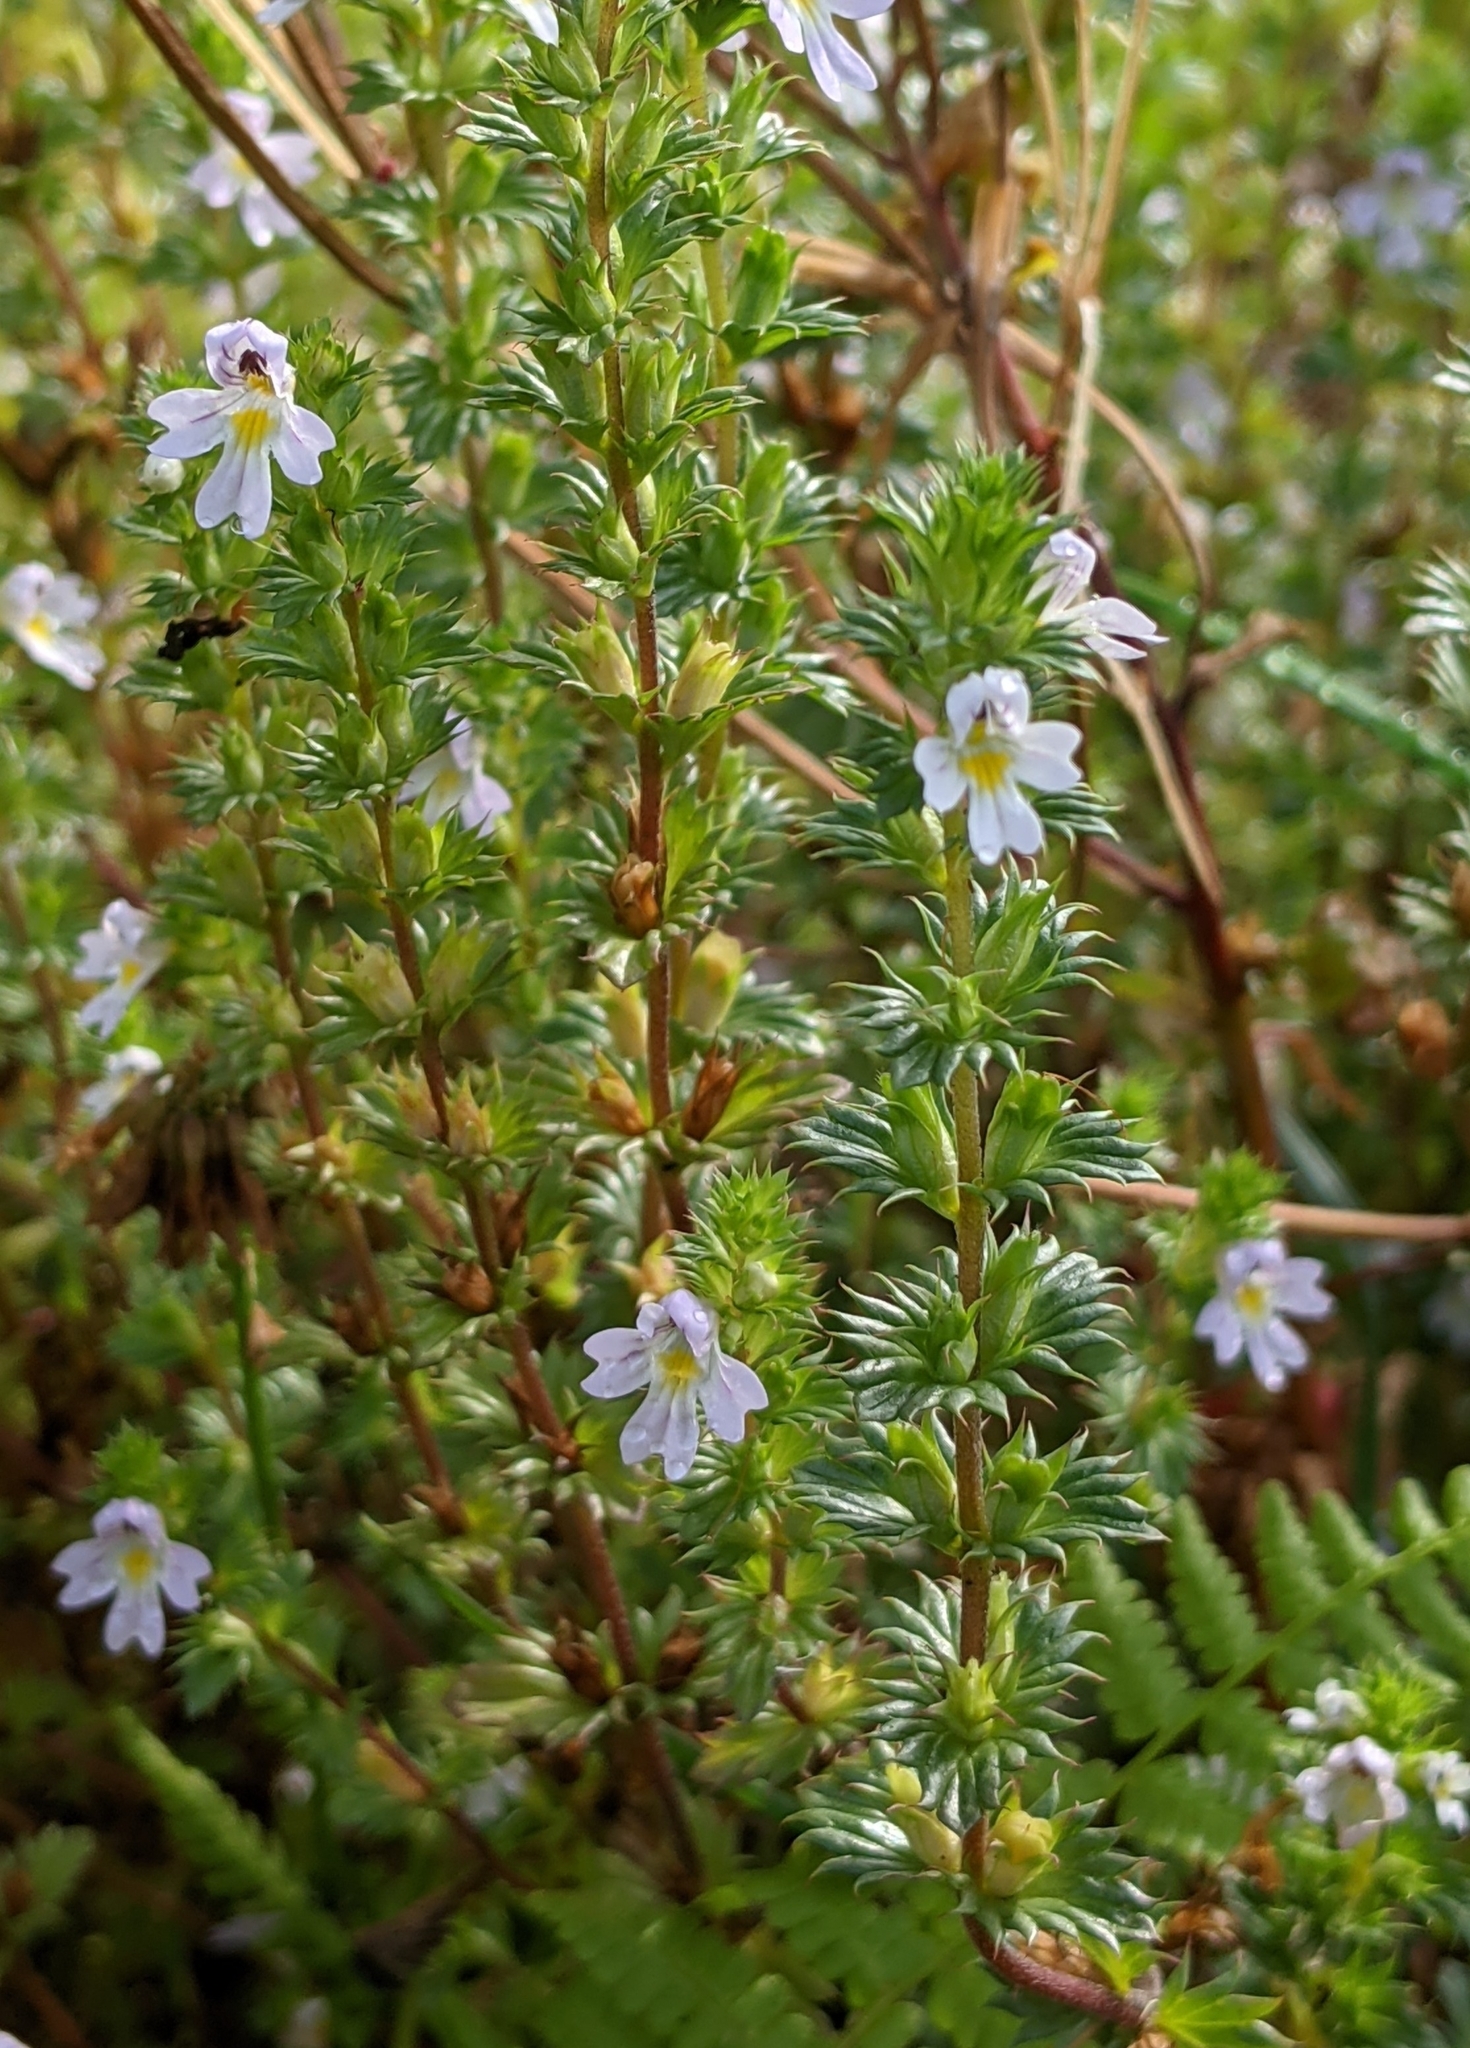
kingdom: Plantae
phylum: Tracheophyta
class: Magnoliopsida
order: Lamiales
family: Orobanchaceae
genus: Euphrasia
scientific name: Euphrasia nemorosa
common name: Common eyebright
